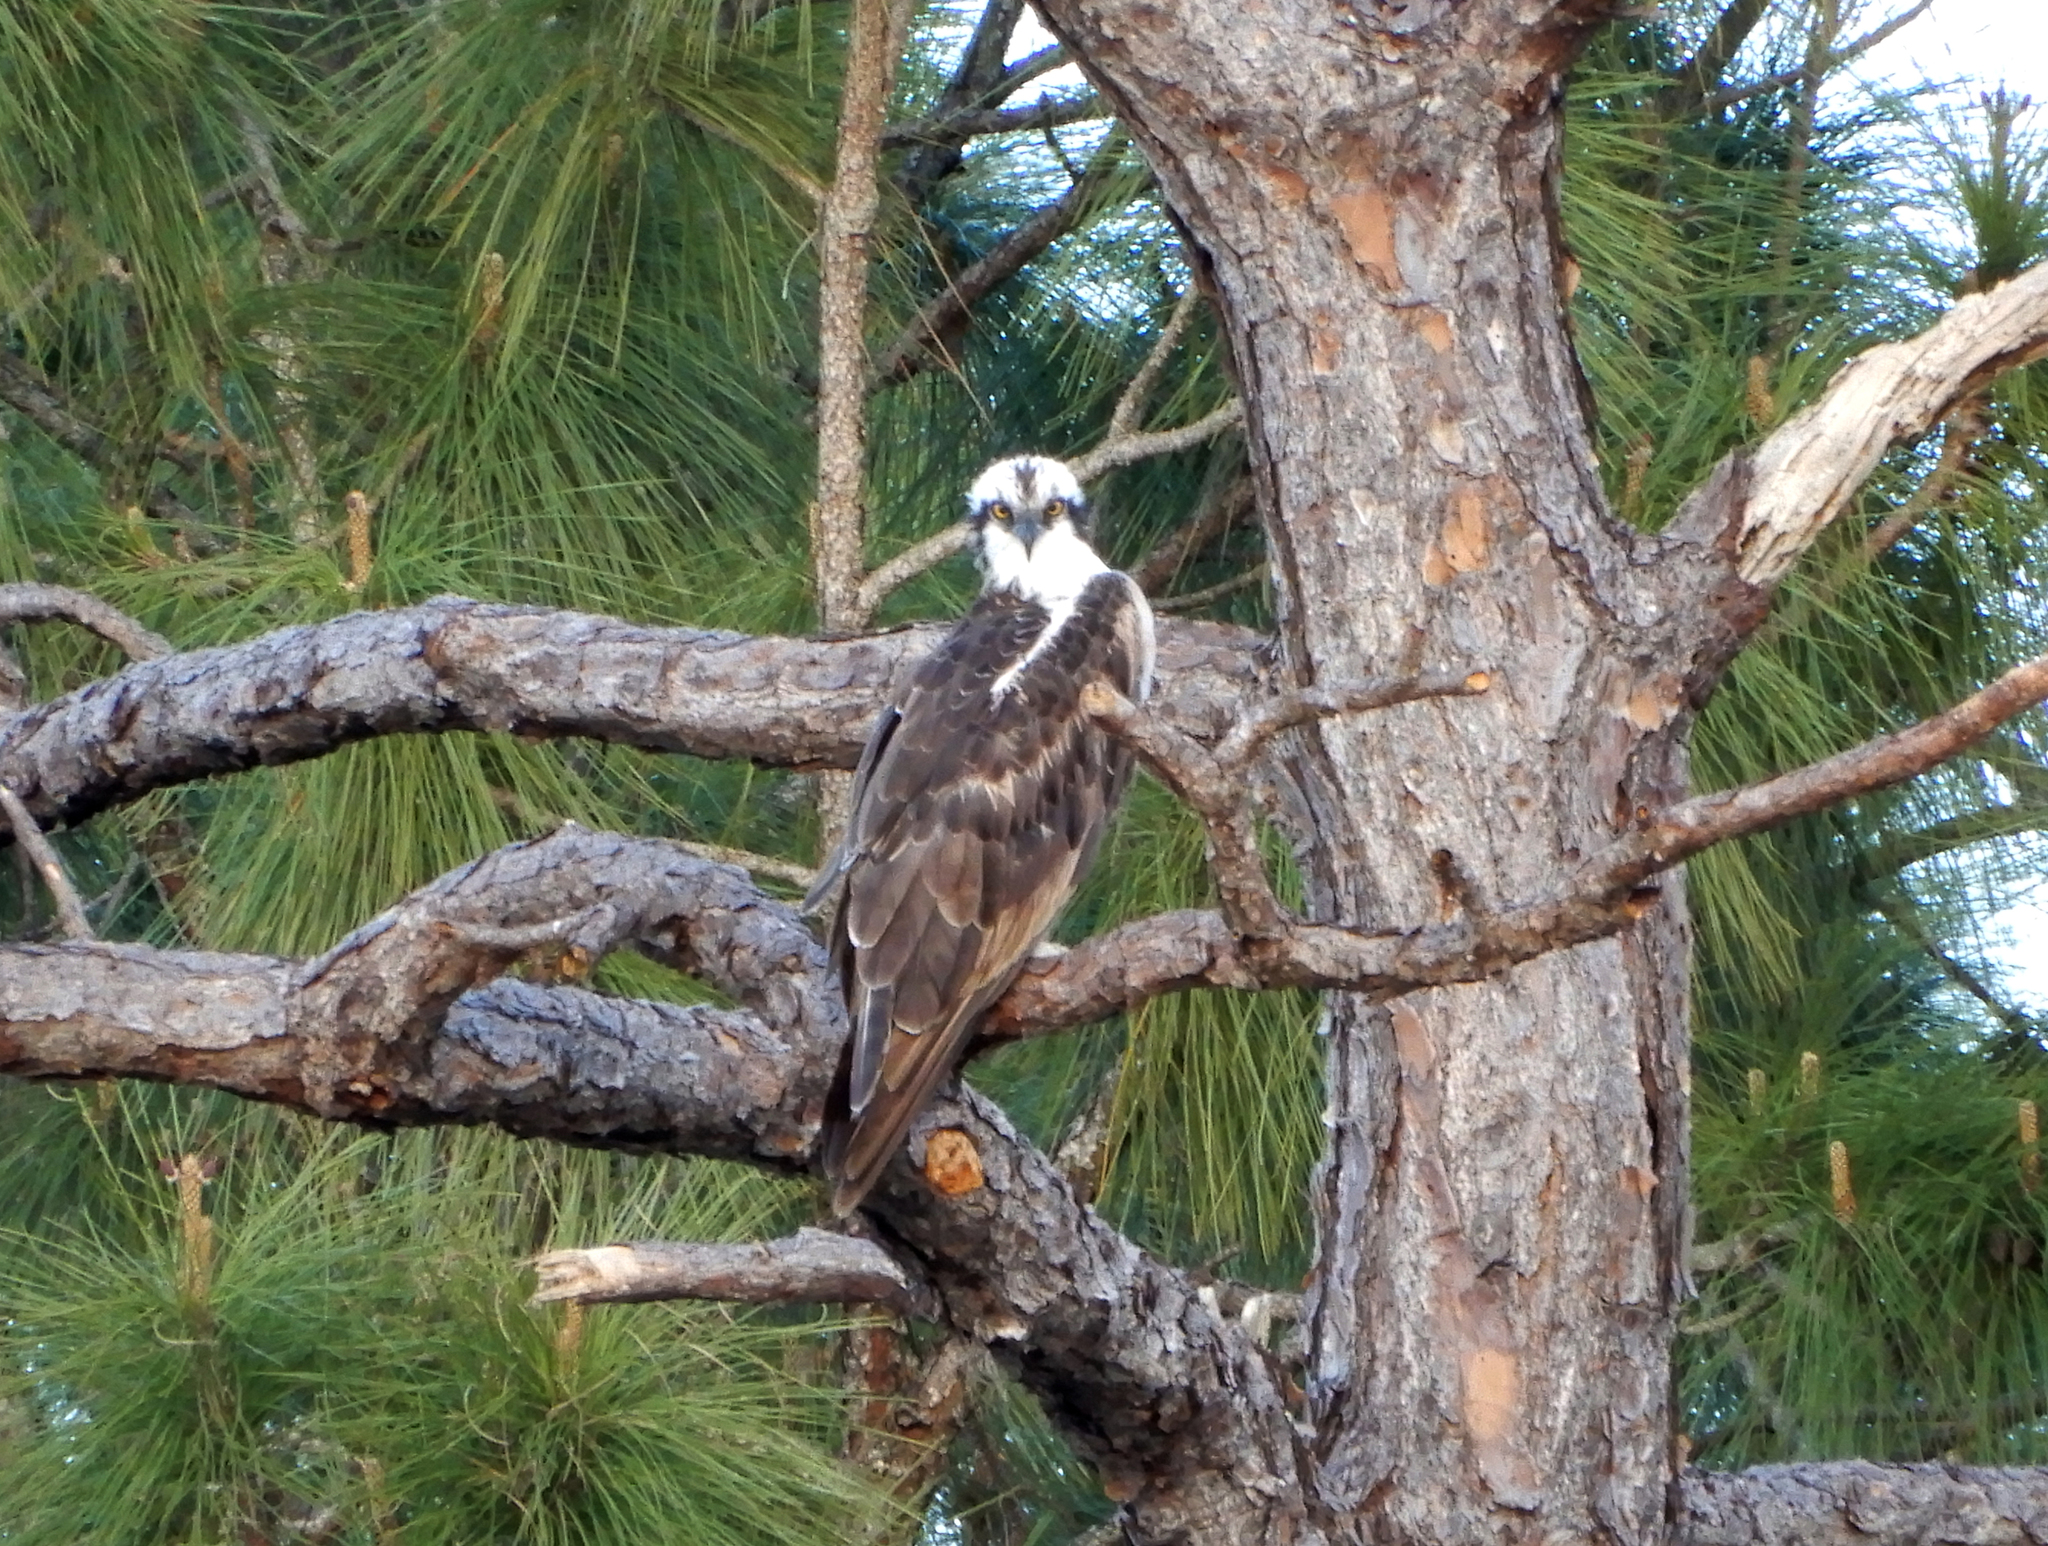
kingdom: Animalia
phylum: Chordata
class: Aves
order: Accipitriformes
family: Pandionidae
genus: Pandion
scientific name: Pandion haliaetus
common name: Osprey
